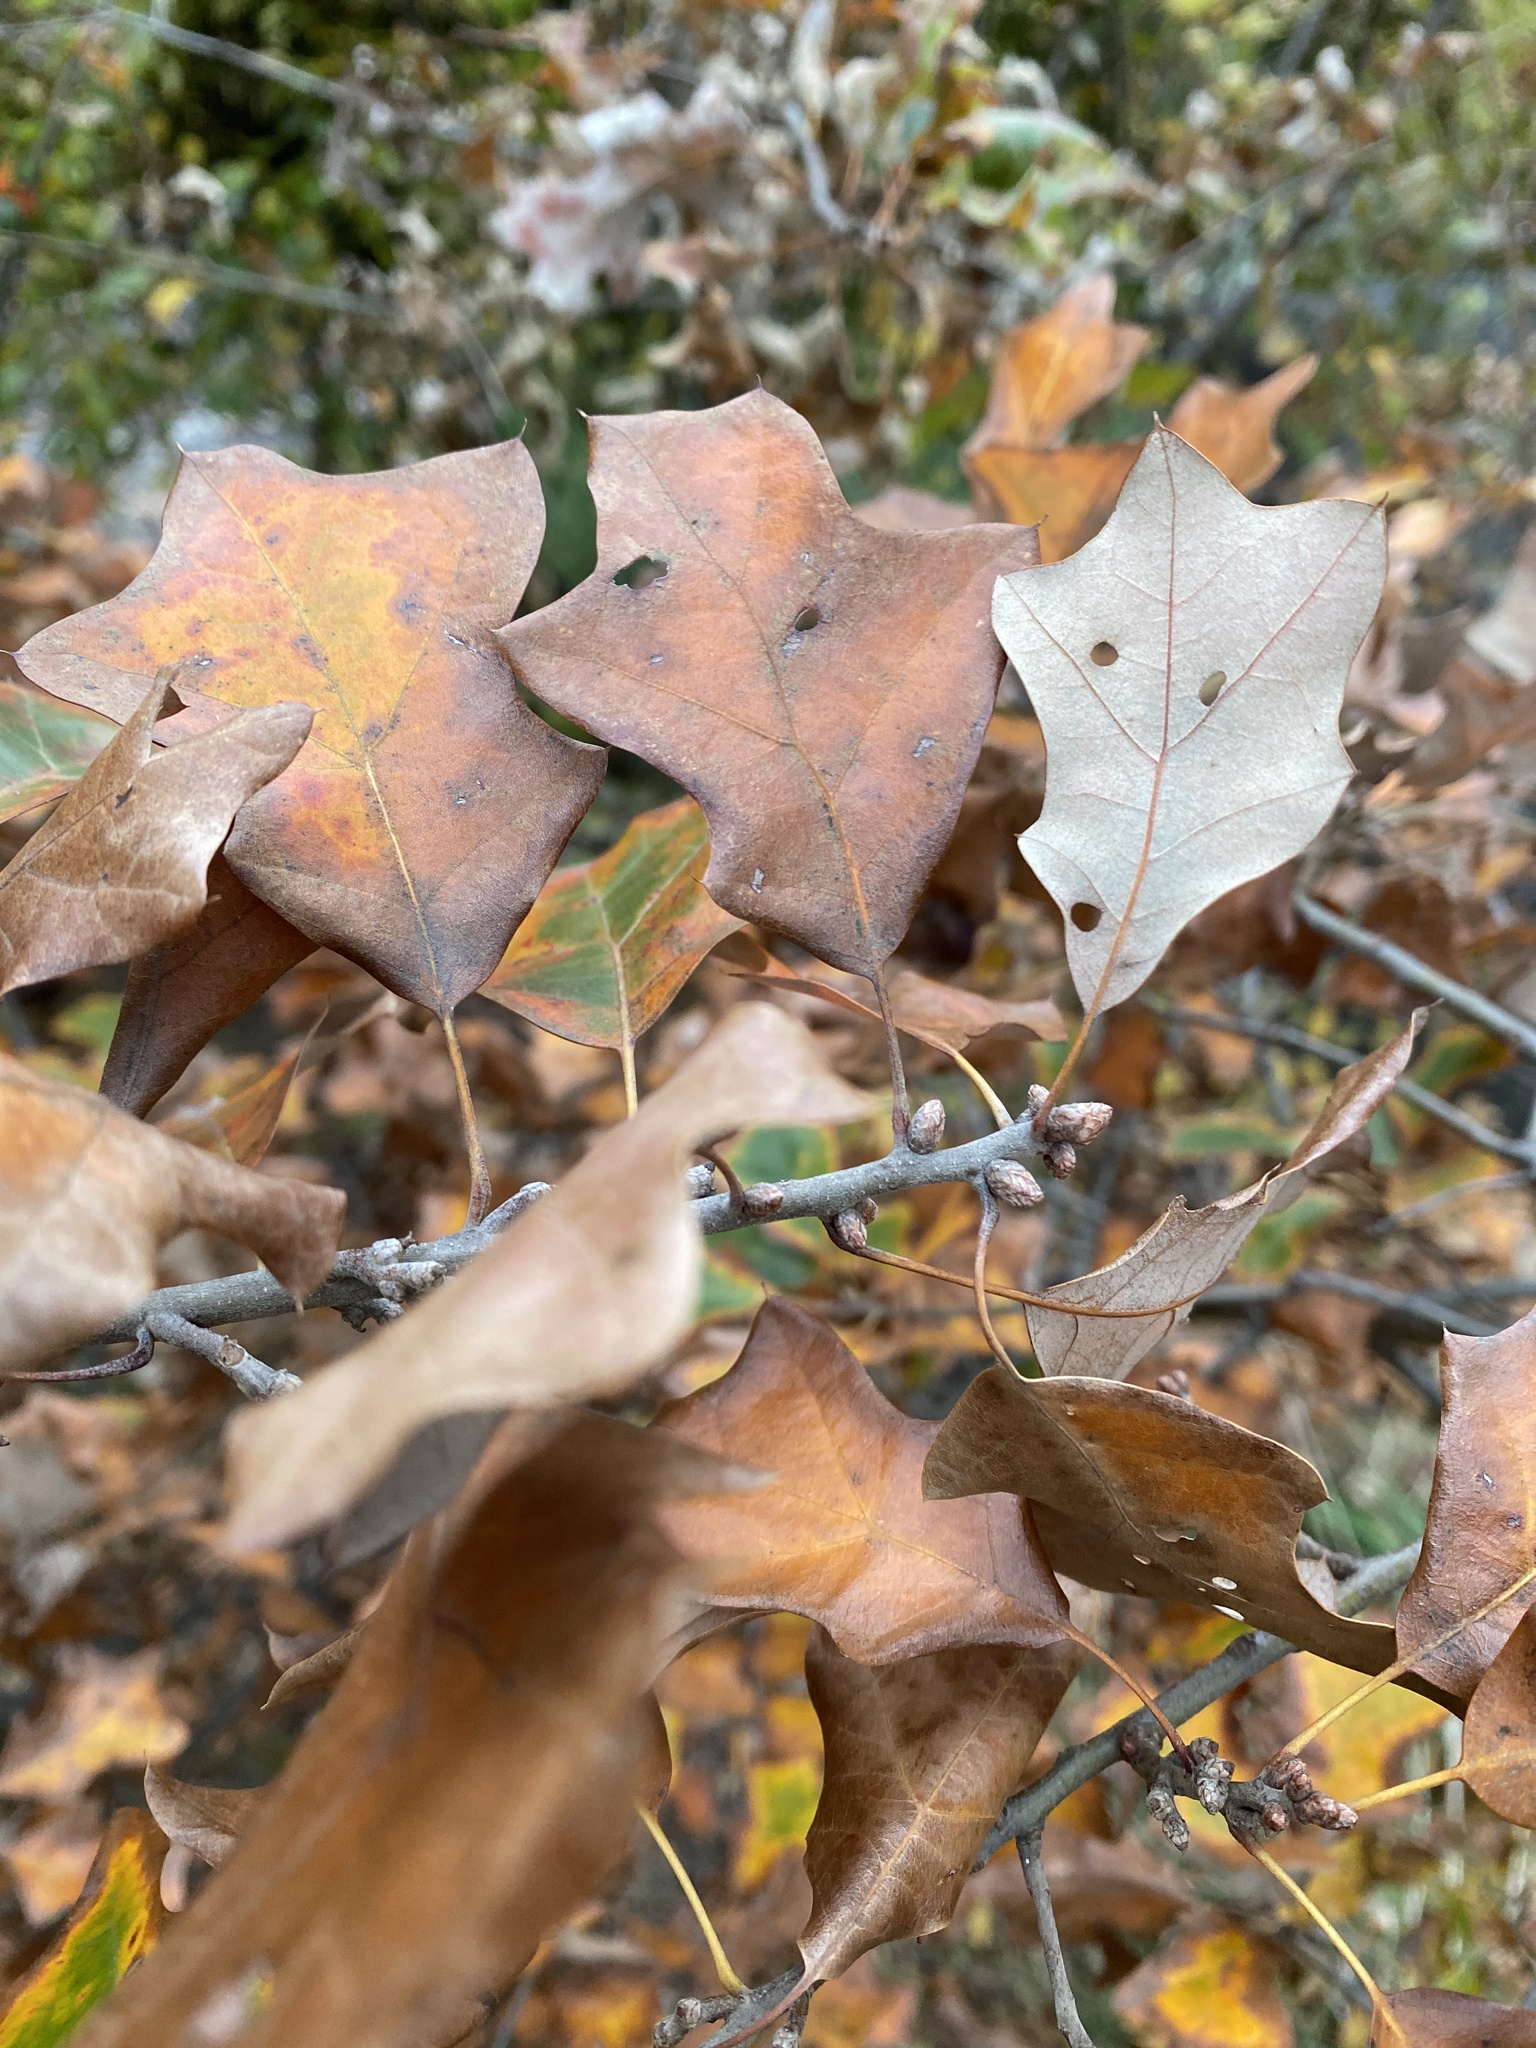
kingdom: Plantae
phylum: Tracheophyta
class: Magnoliopsida
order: Fagales
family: Fagaceae
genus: Quercus
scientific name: Quercus ilicifolia
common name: Bear oak
